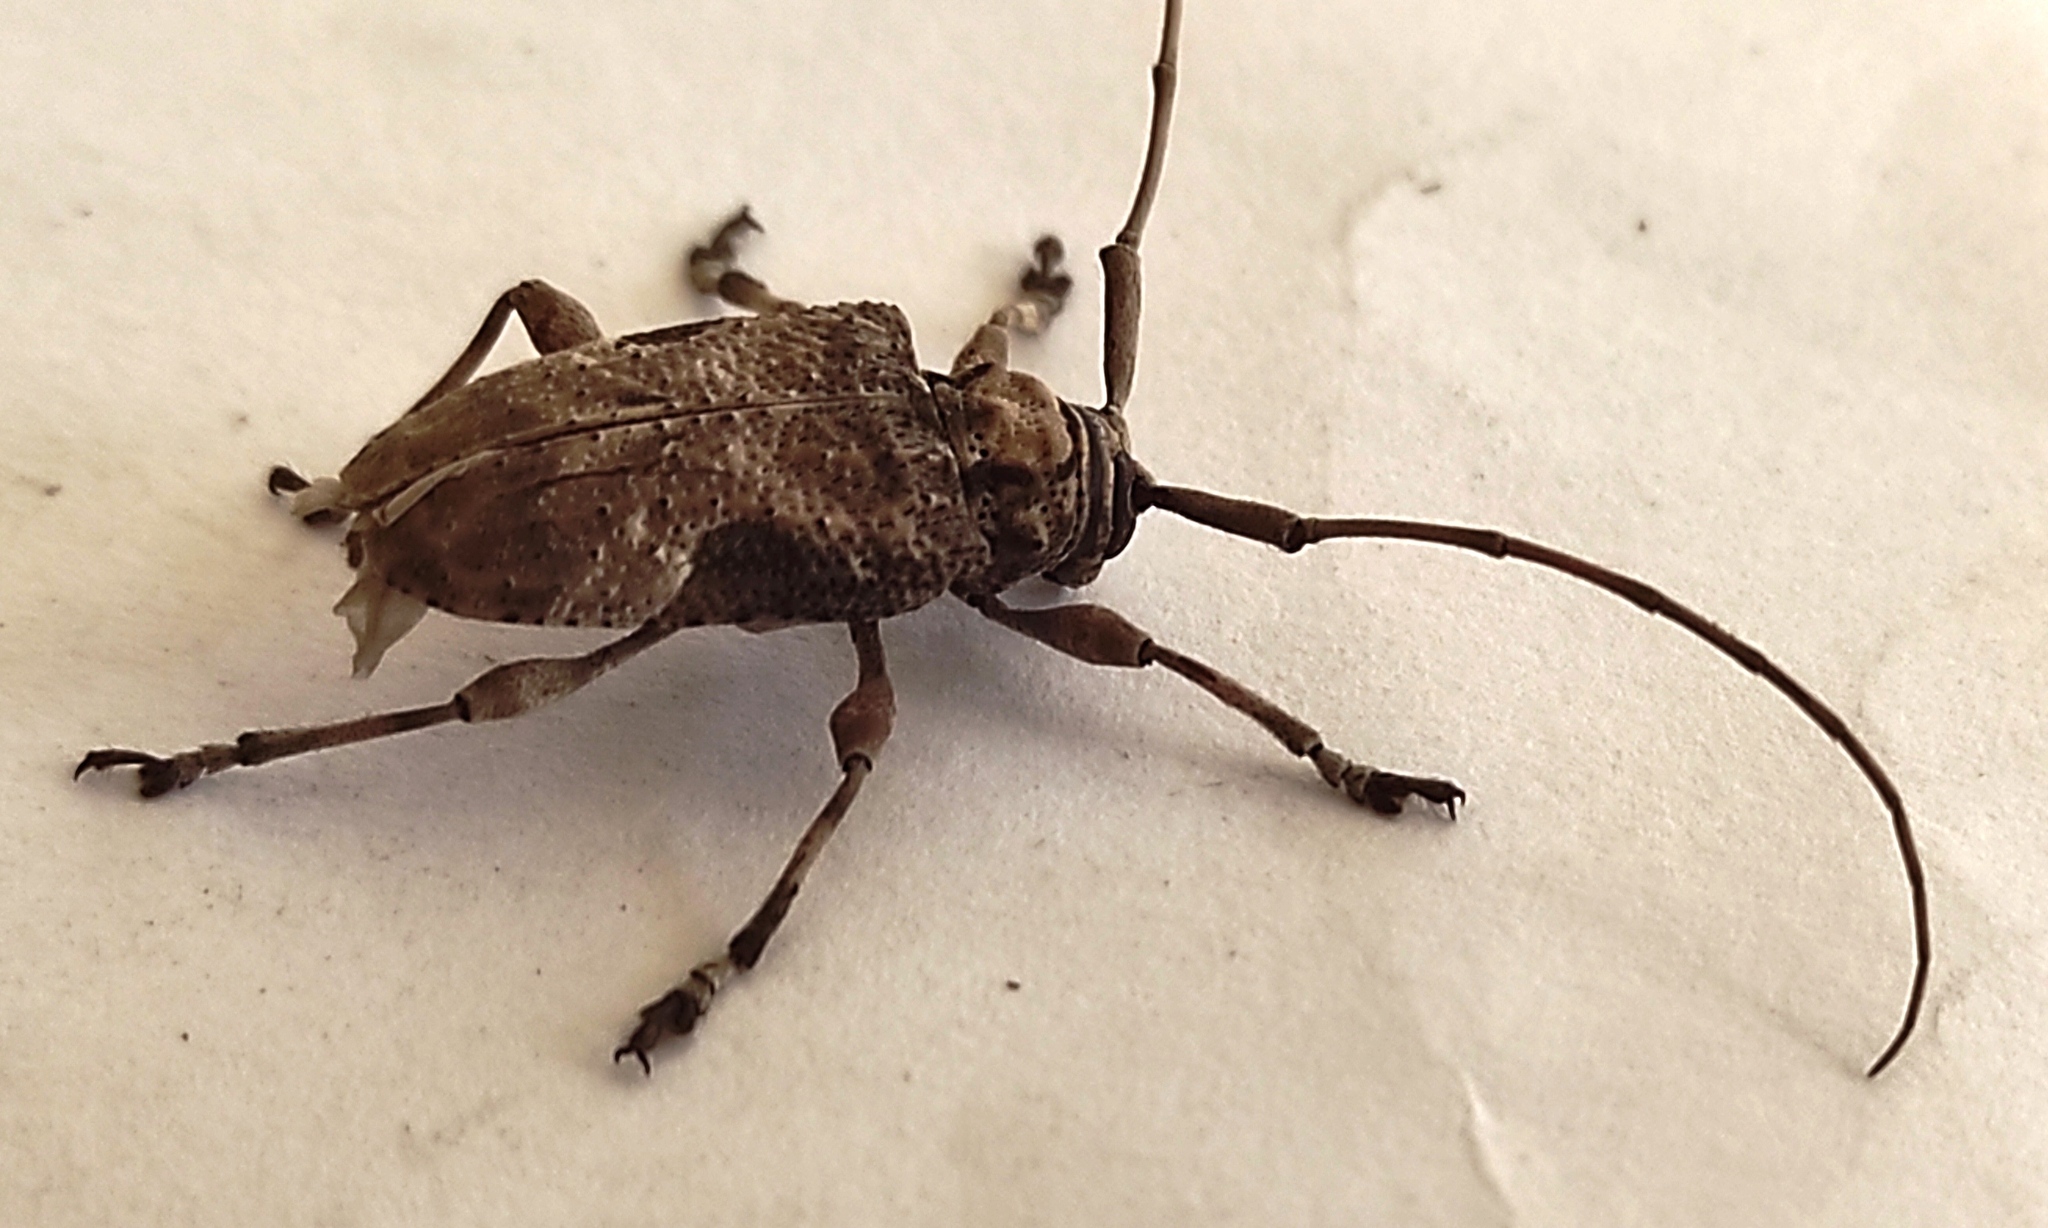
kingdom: Animalia
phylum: Arthropoda
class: Insecta
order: Coleoptera
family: Cerambycidae
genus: Lagocheirus
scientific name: Lagocheirus araneiformis
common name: Beetle
